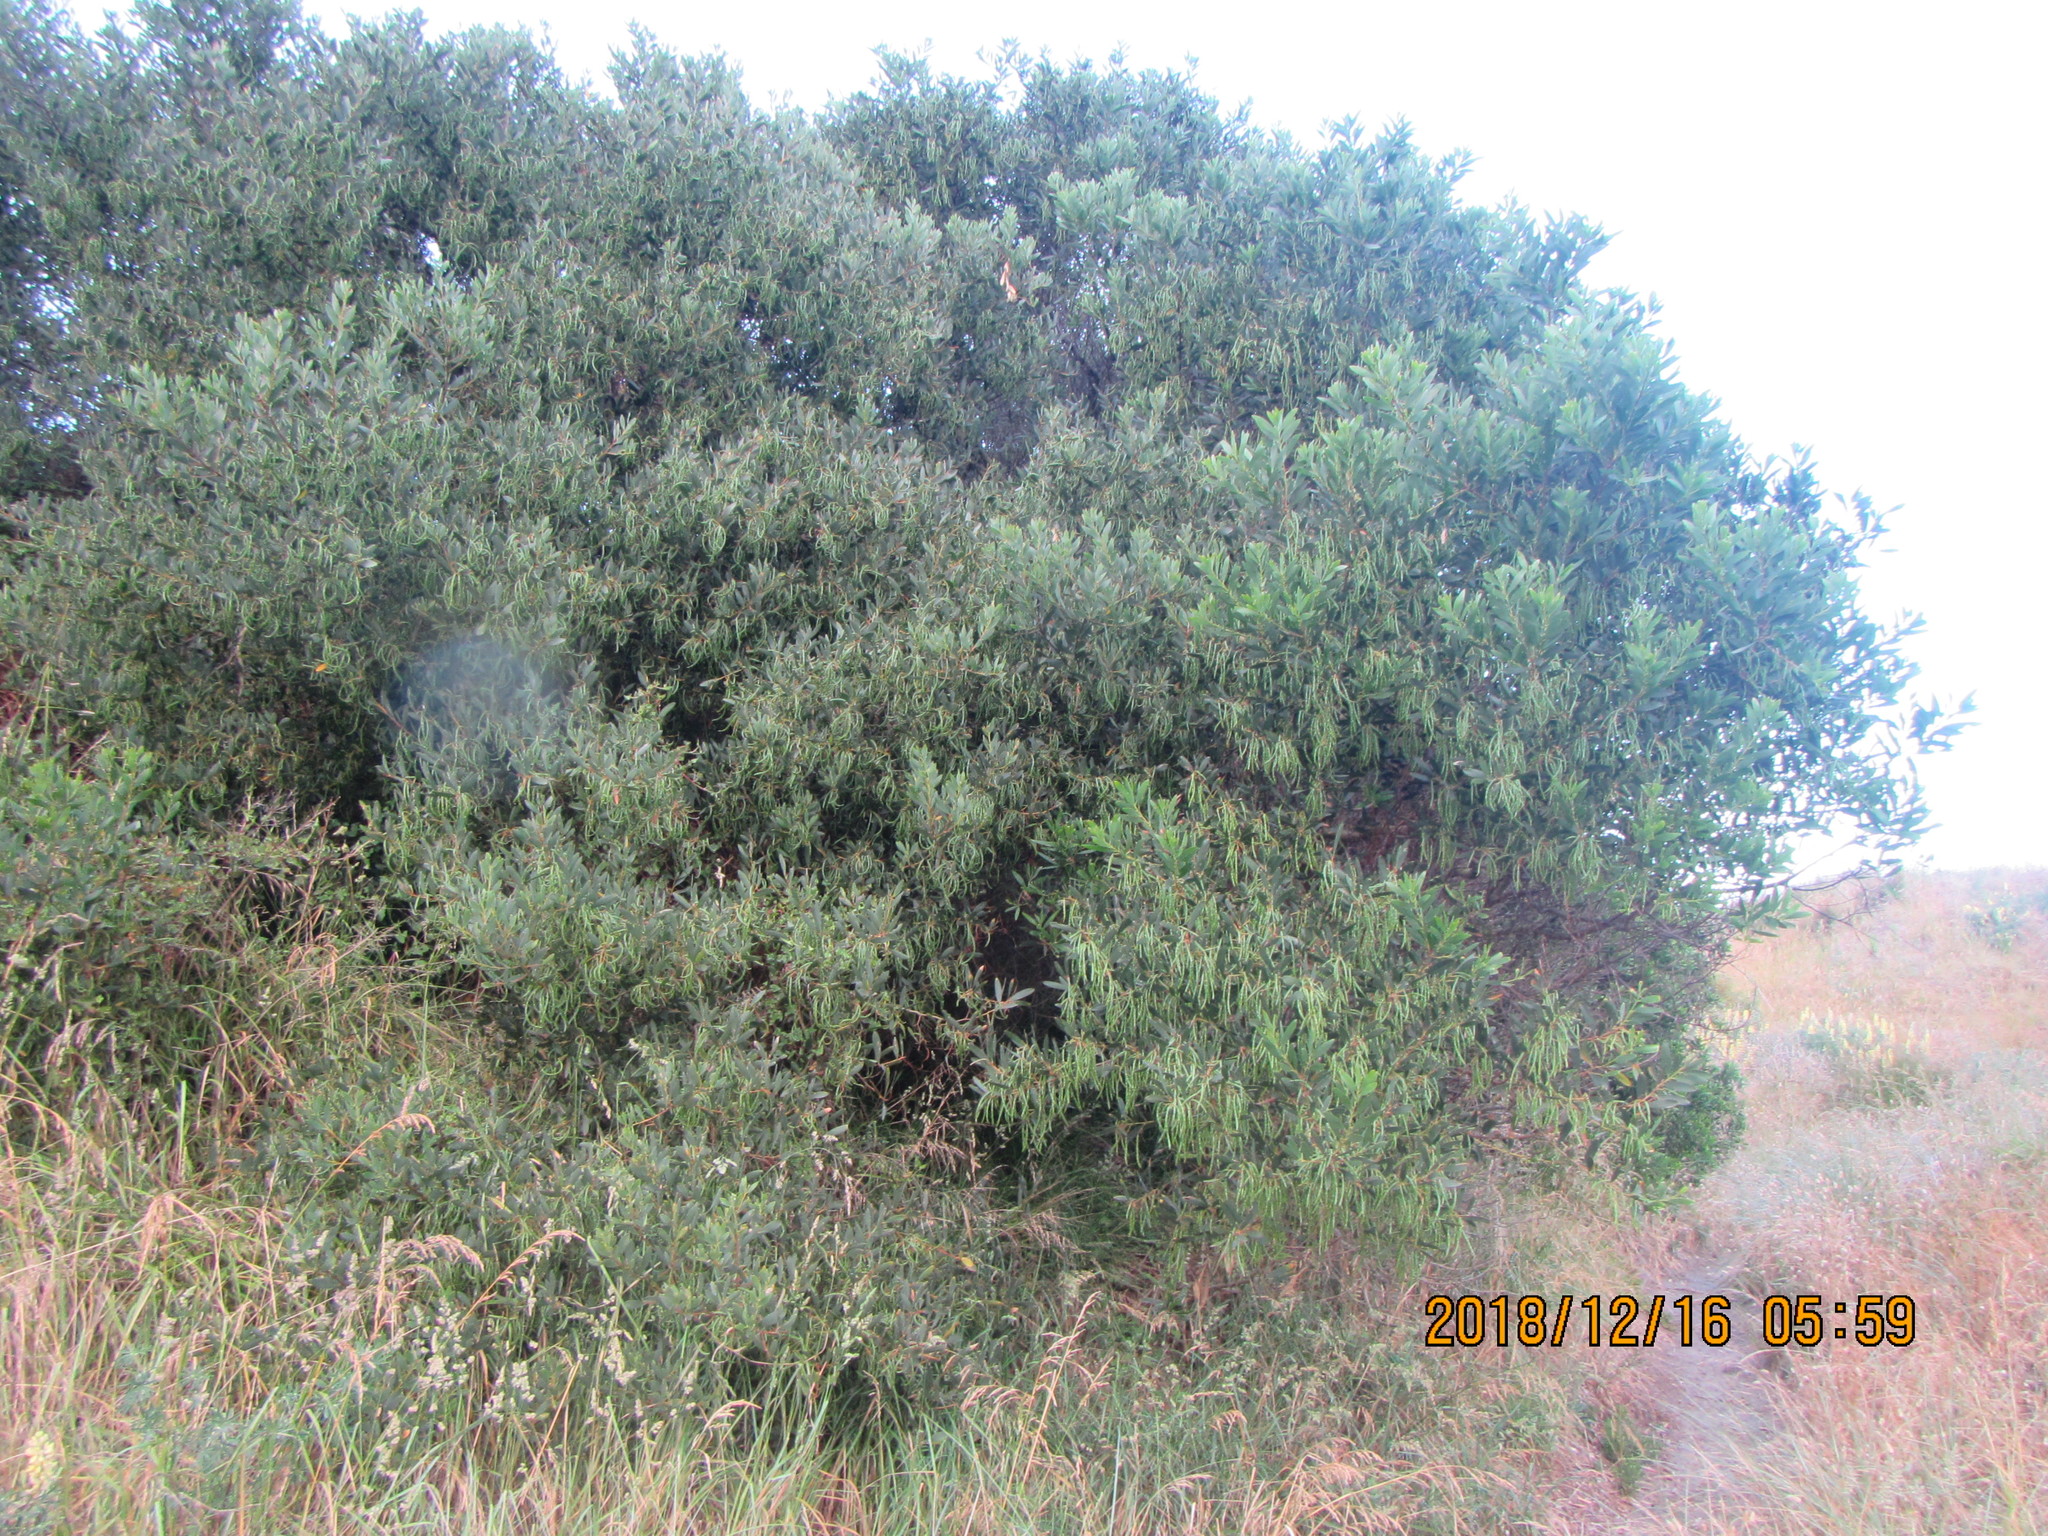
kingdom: Plantae
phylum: Tracheophyta
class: Magnoliopsida
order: Fabales
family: Fabaceae
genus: Acacia
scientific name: Acacia longifolia
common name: Sydney golden wattle
